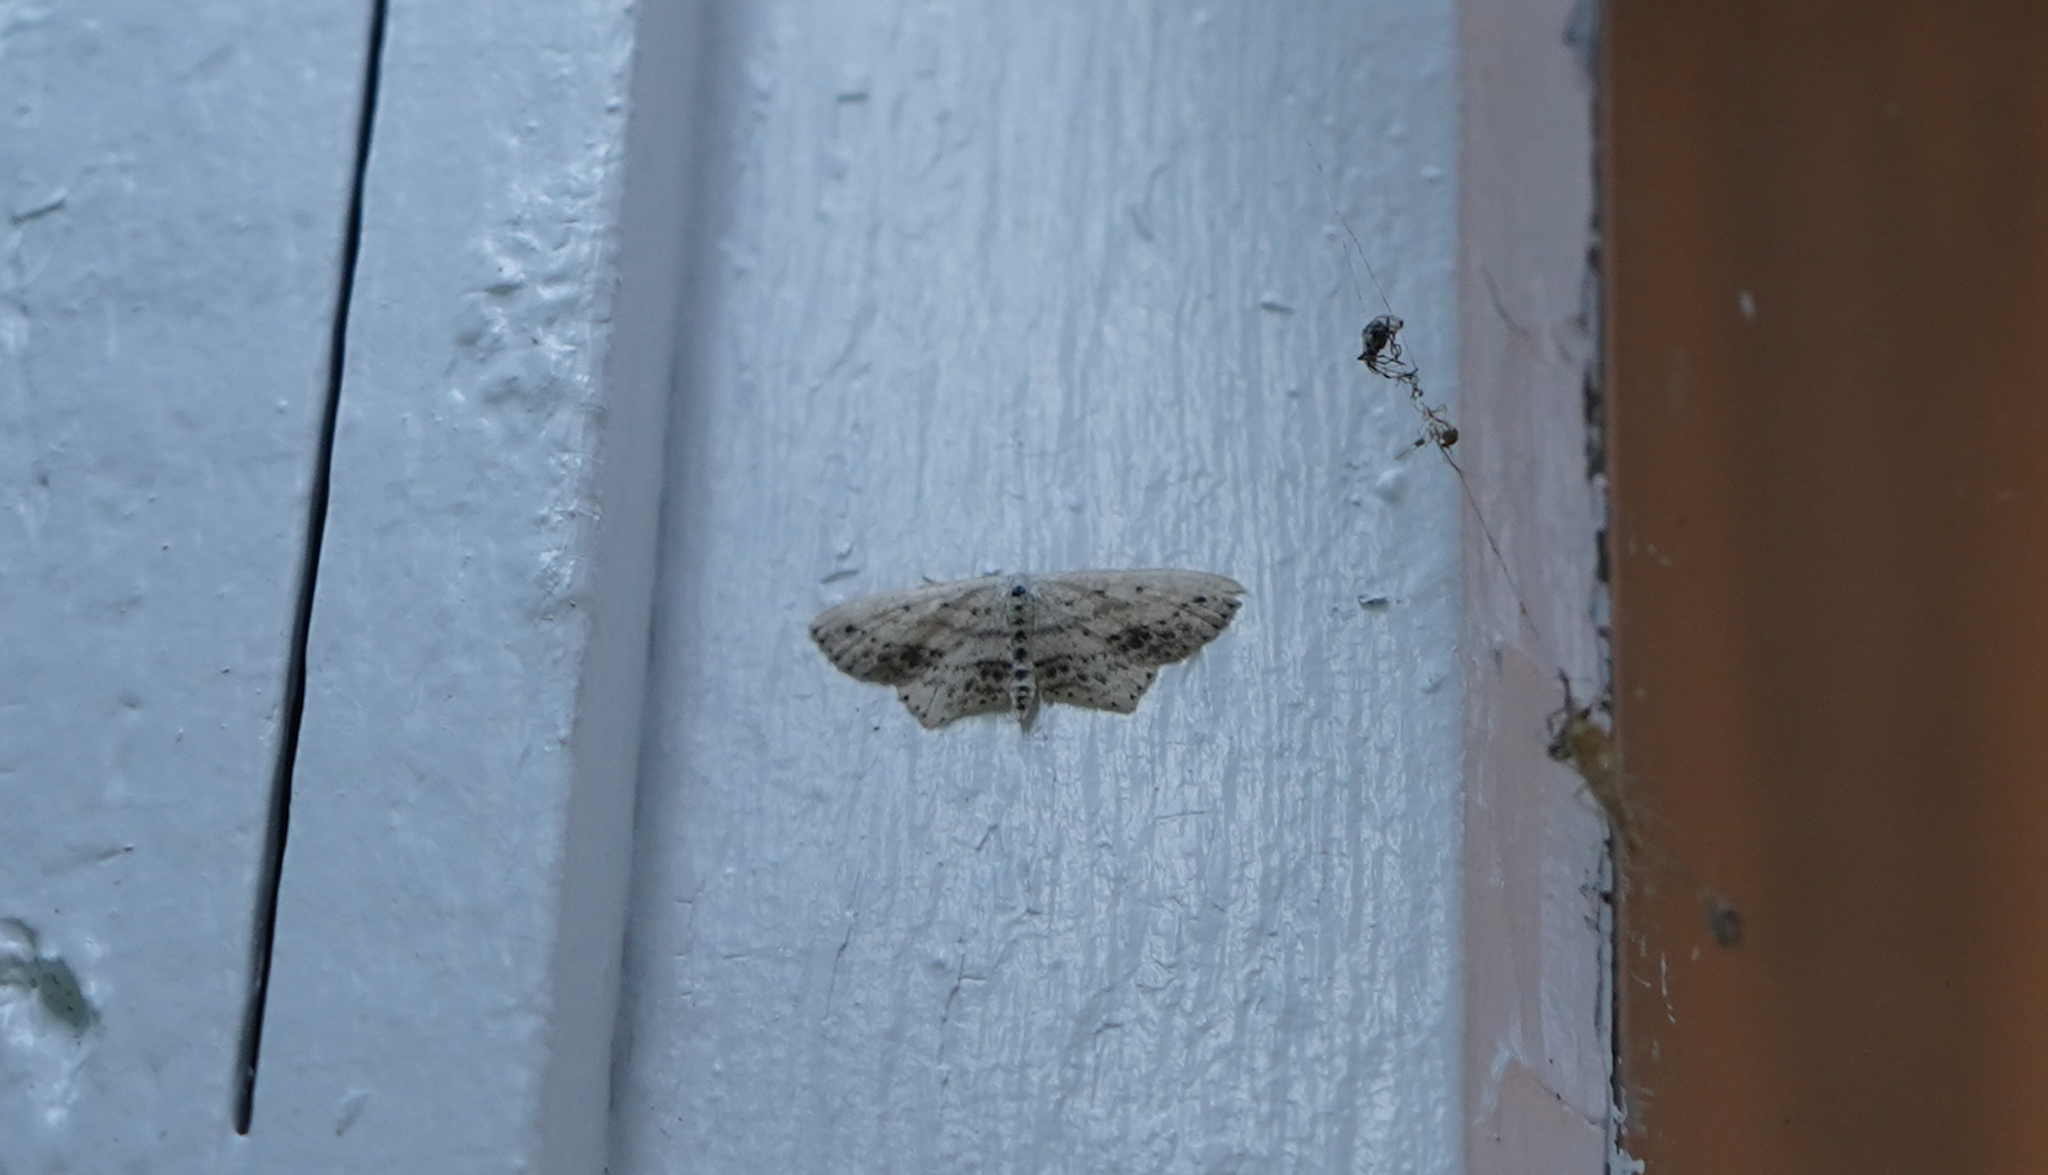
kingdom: Animalia
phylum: Arthropoda
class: Insecta
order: Lepidoptera
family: Geometridae
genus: Scopula
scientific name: Scopula cacuminaria
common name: Frosted tan wave
